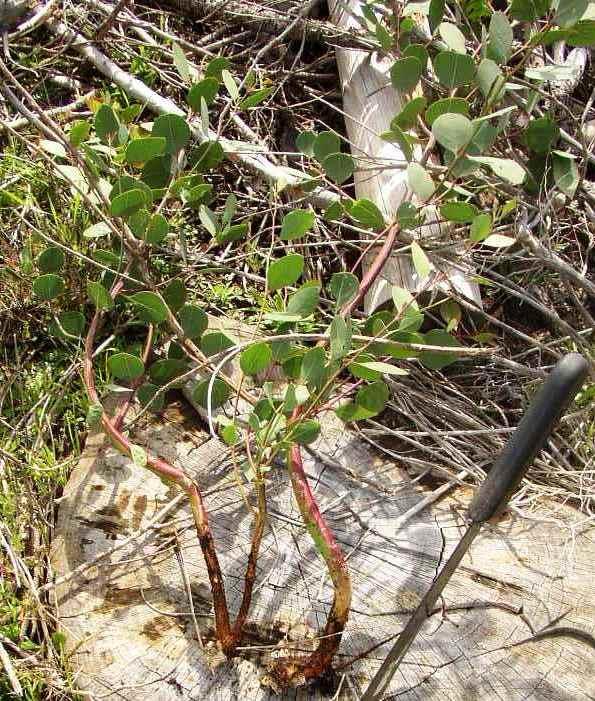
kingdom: Plantae
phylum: Tracheophyta
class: Magnoliopsida
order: Myrtales
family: Myrtaceae
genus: Eucalyptus
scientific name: Eucalyptus botryoides
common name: Bangalay
